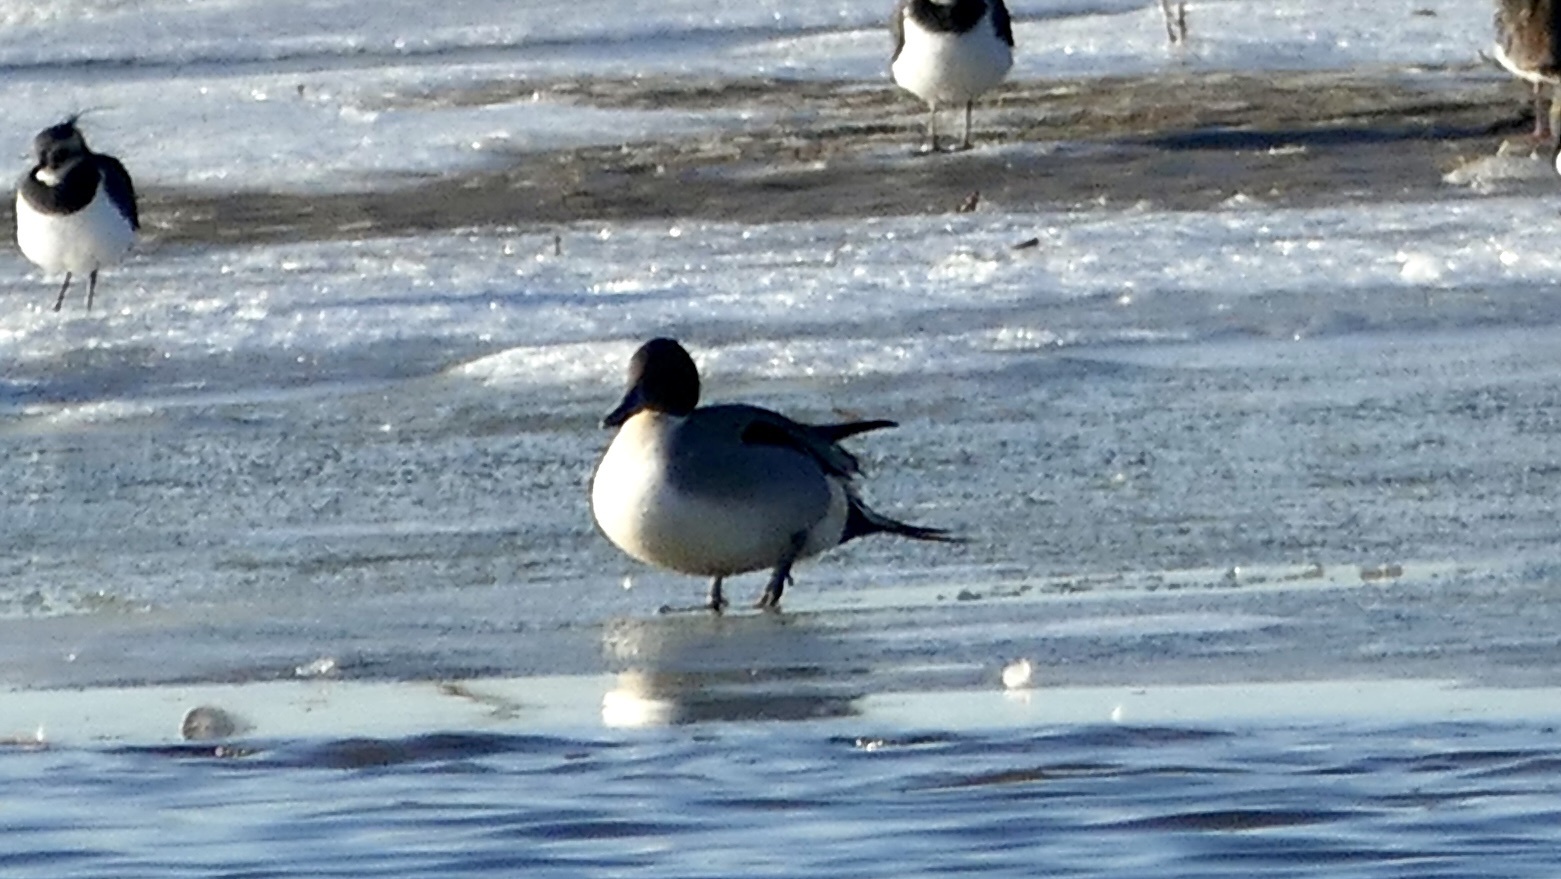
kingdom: Animalia
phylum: Chordata
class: Aves
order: Anseriformes
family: Anatidae
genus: Anas
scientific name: Anas acuta
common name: Northern pintail
